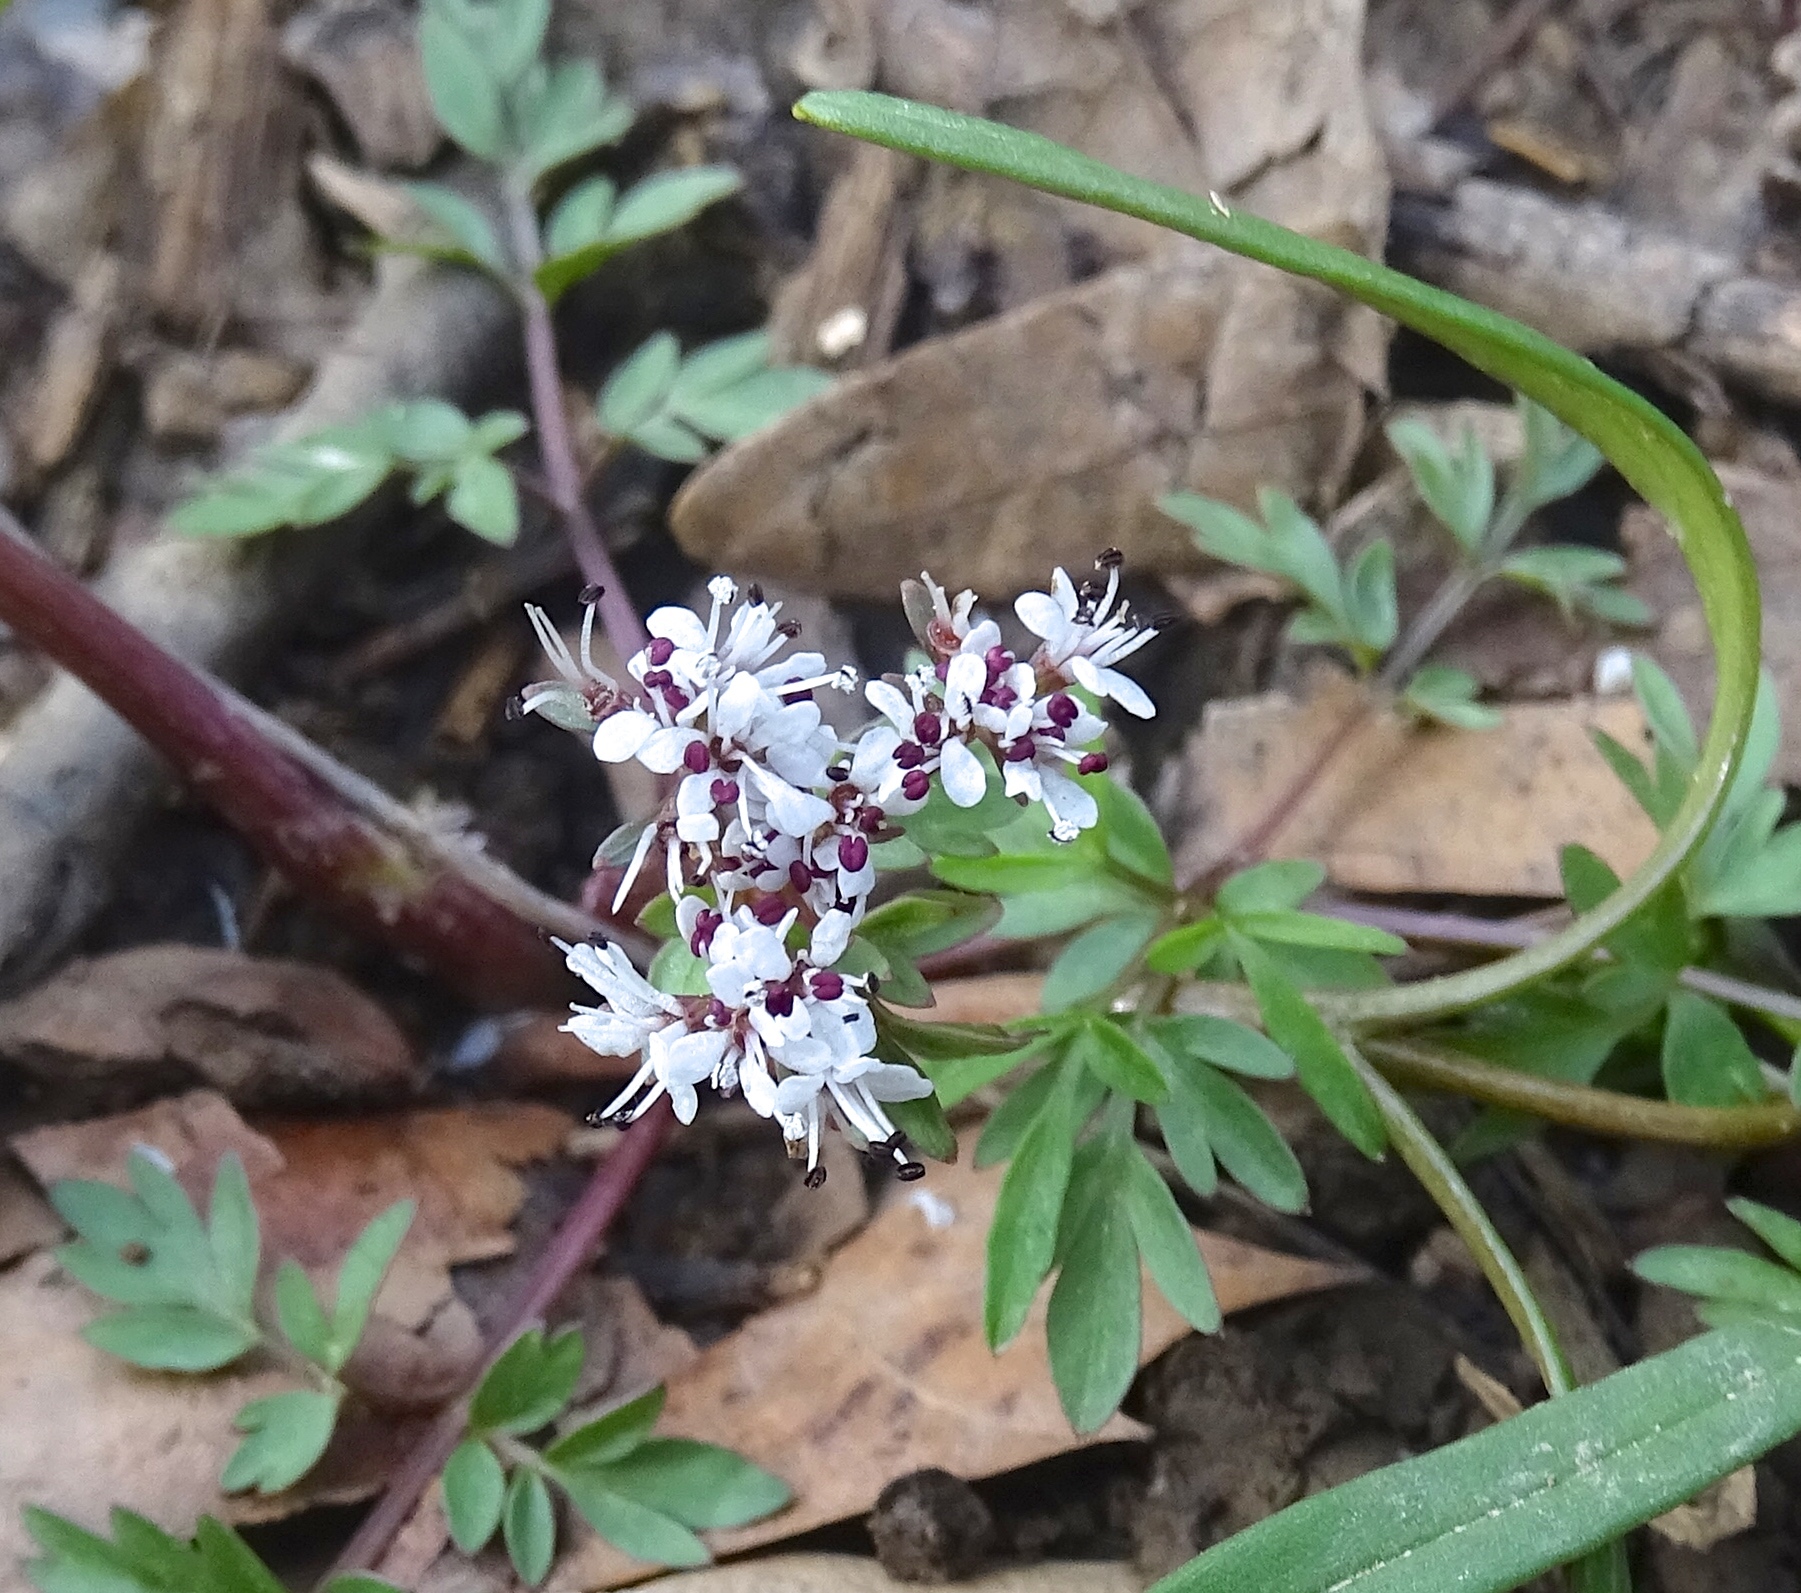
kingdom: Plantae
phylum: Tracheophyta
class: Magnoliopsida
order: Apiales
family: Apiaceae
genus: Erigenia
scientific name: Erigenia bulbosa
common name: Pepper-and-salt
